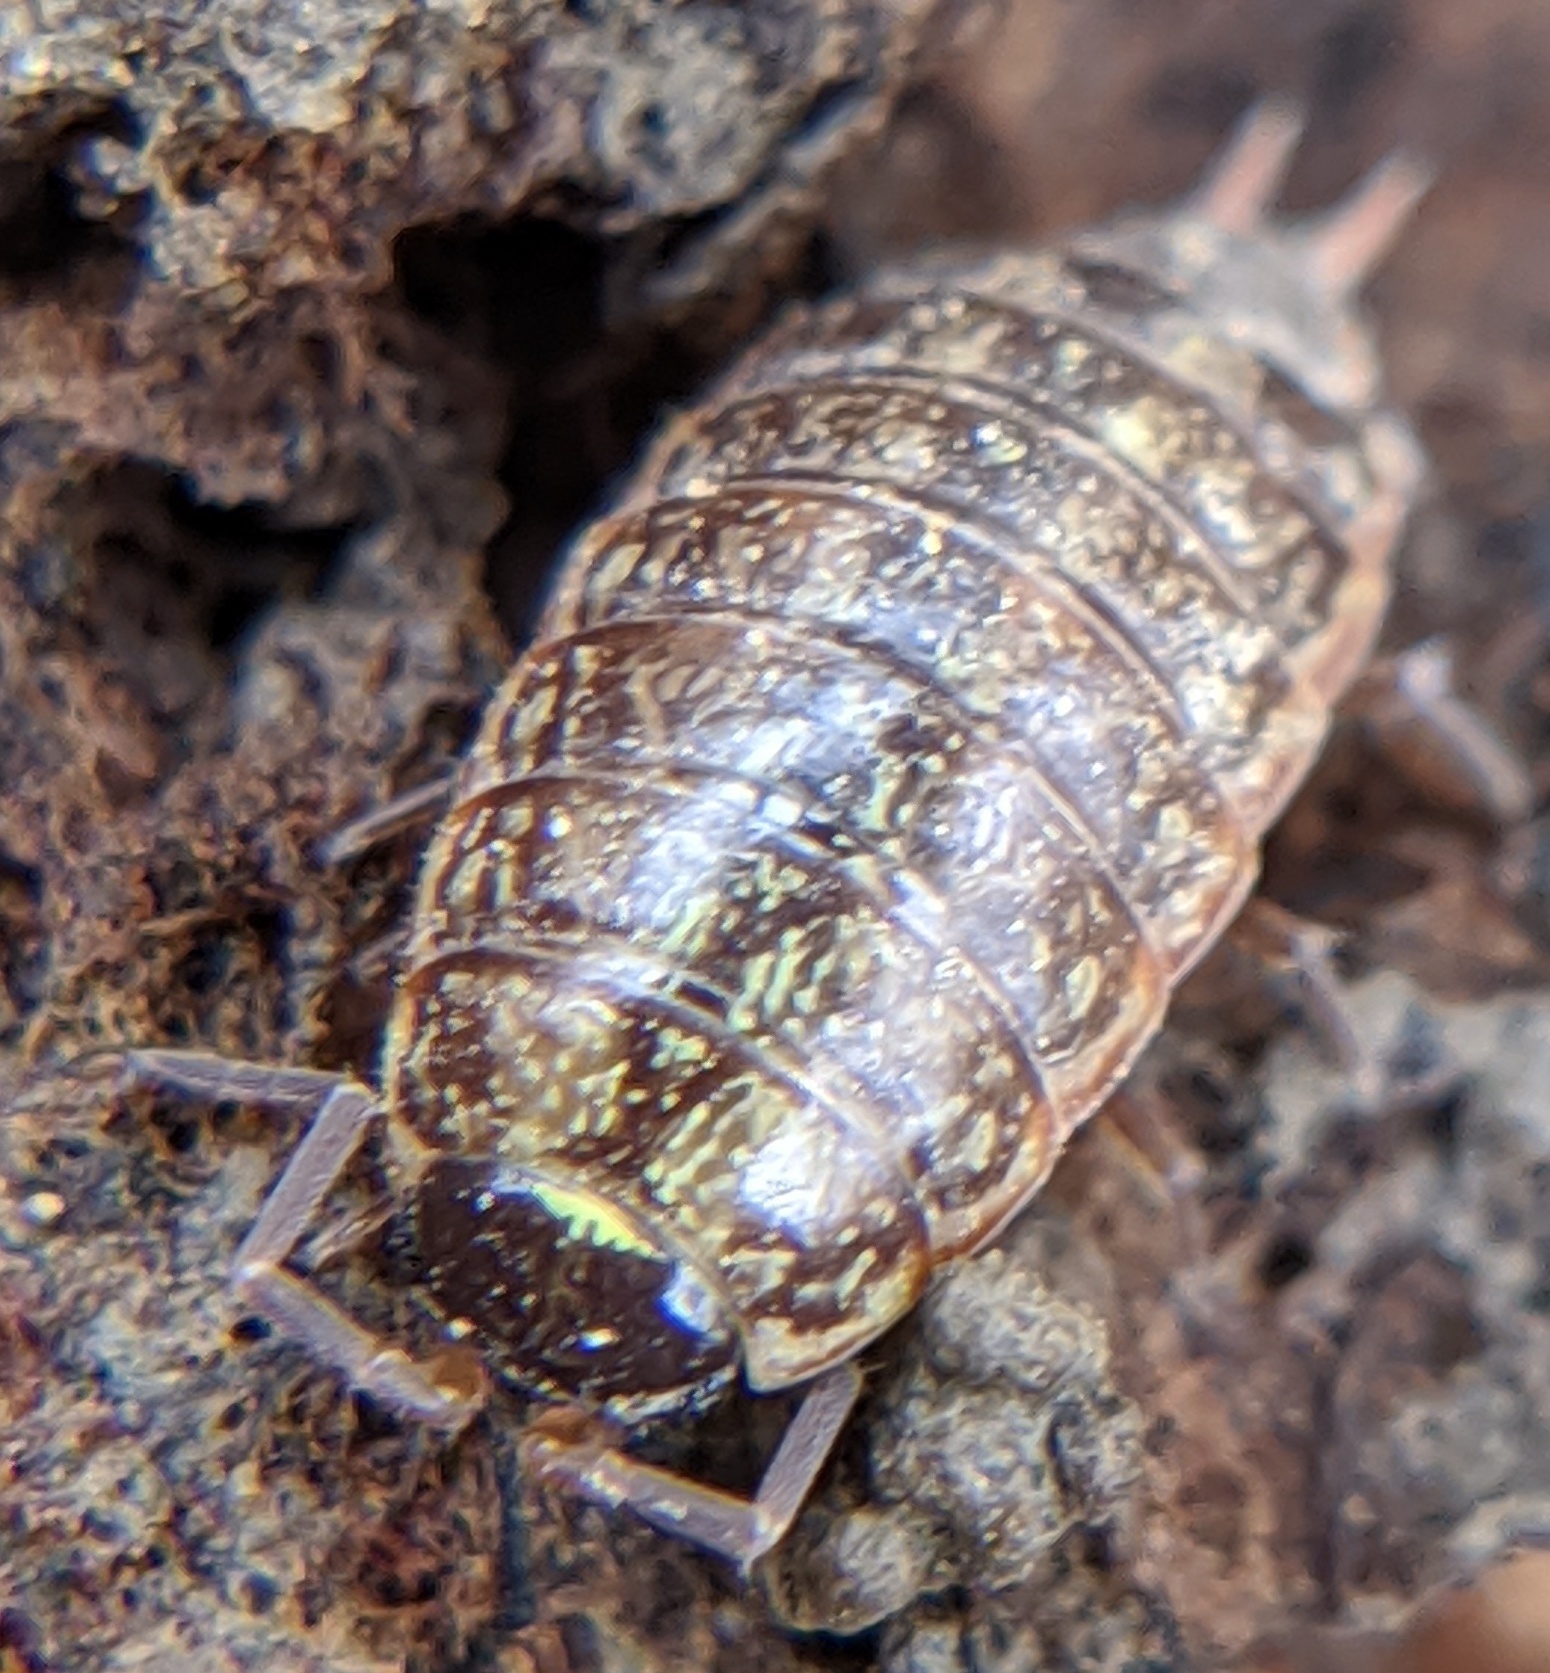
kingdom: Animalia
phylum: Arthropoda
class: Malacostraca
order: Isopoda
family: Philosciidae
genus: Philoscia
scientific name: Philoscia muscorum
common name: Common striped woodlouse
